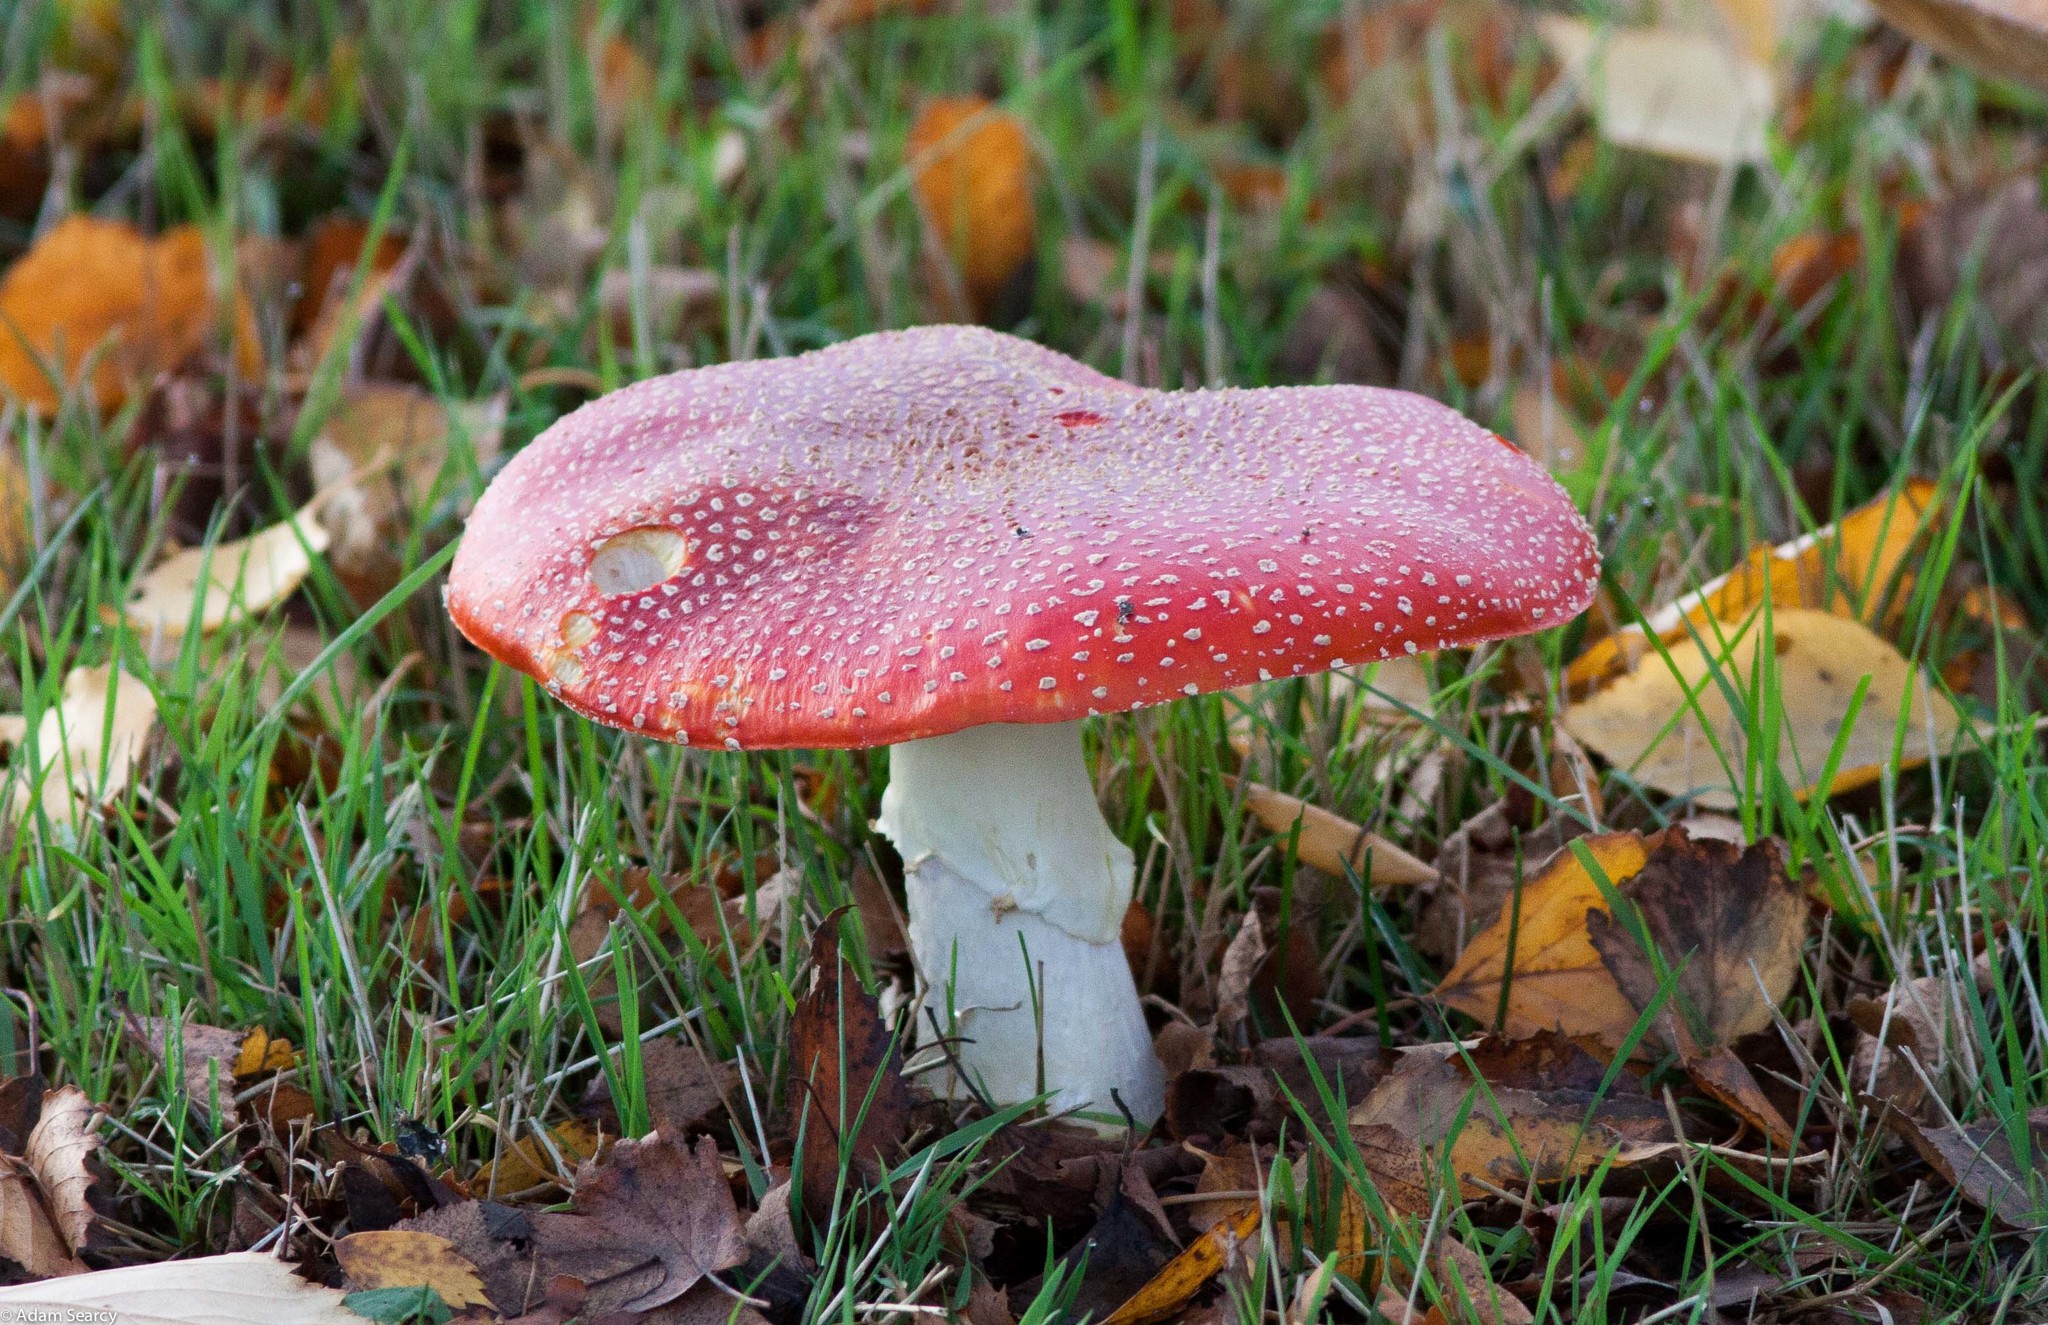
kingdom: Fungi
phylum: Basidiomycota
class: Agaricomycetes
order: Agaricales
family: Amanitaceae
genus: Amanita
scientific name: Amanita muscaria
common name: Fly agaric
